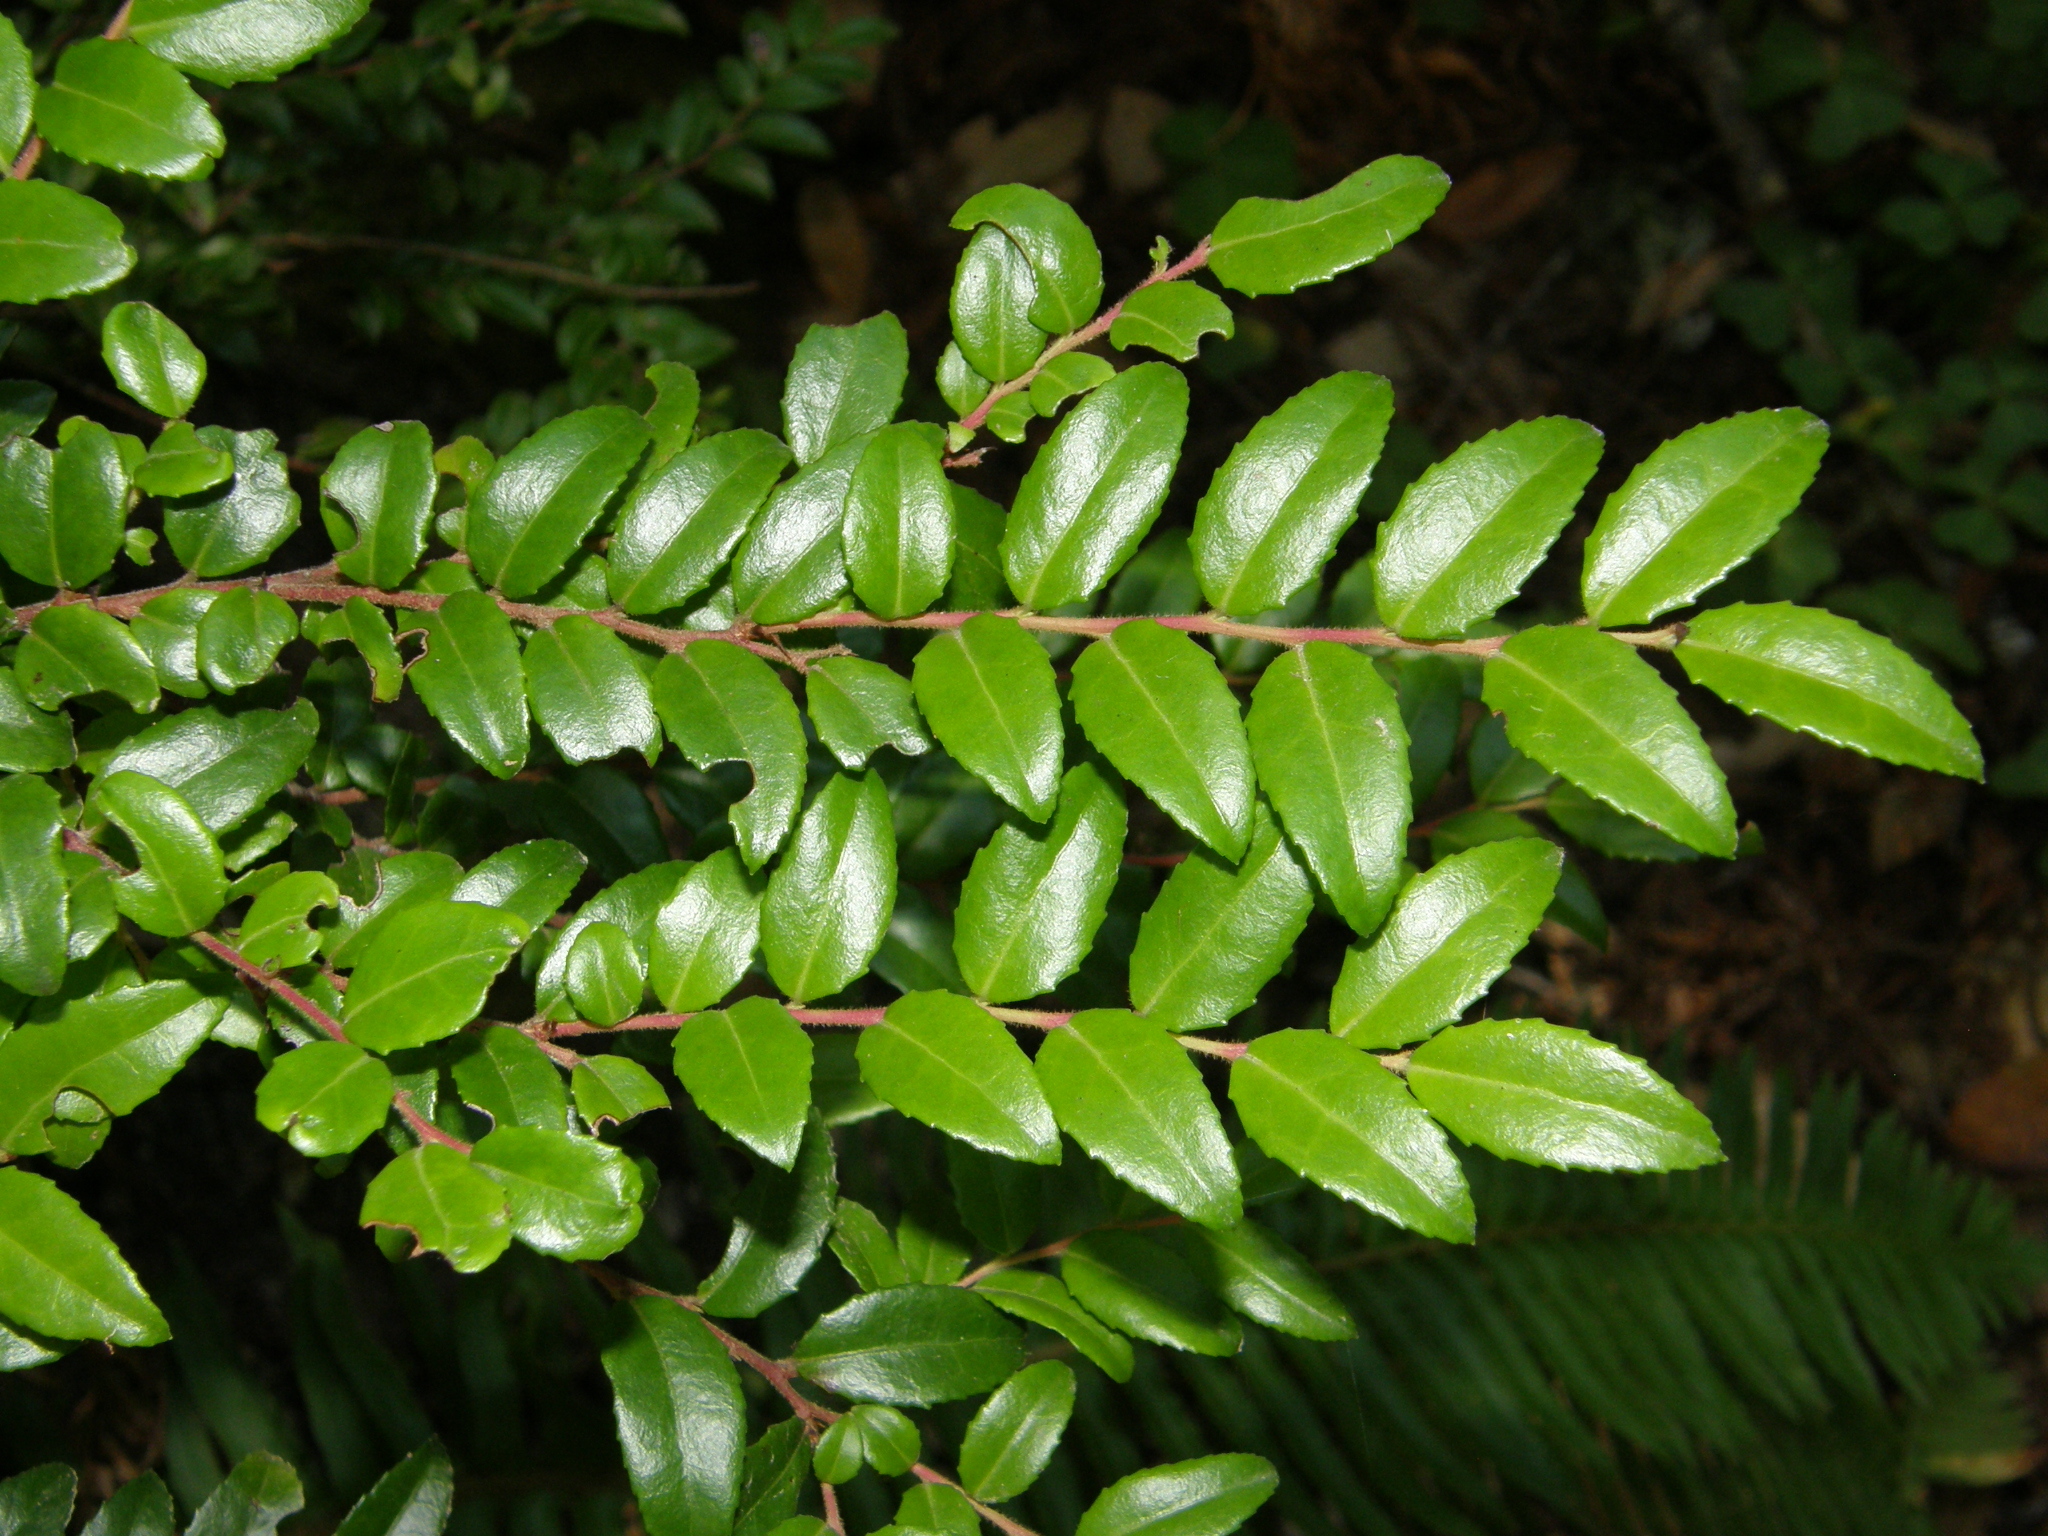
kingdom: Plantae
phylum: Tracheophyta
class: Magnoliopsida
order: Ericales
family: Ericaceae
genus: Vaccinium
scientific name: Vaccinium ovatum
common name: California-huckleberry
